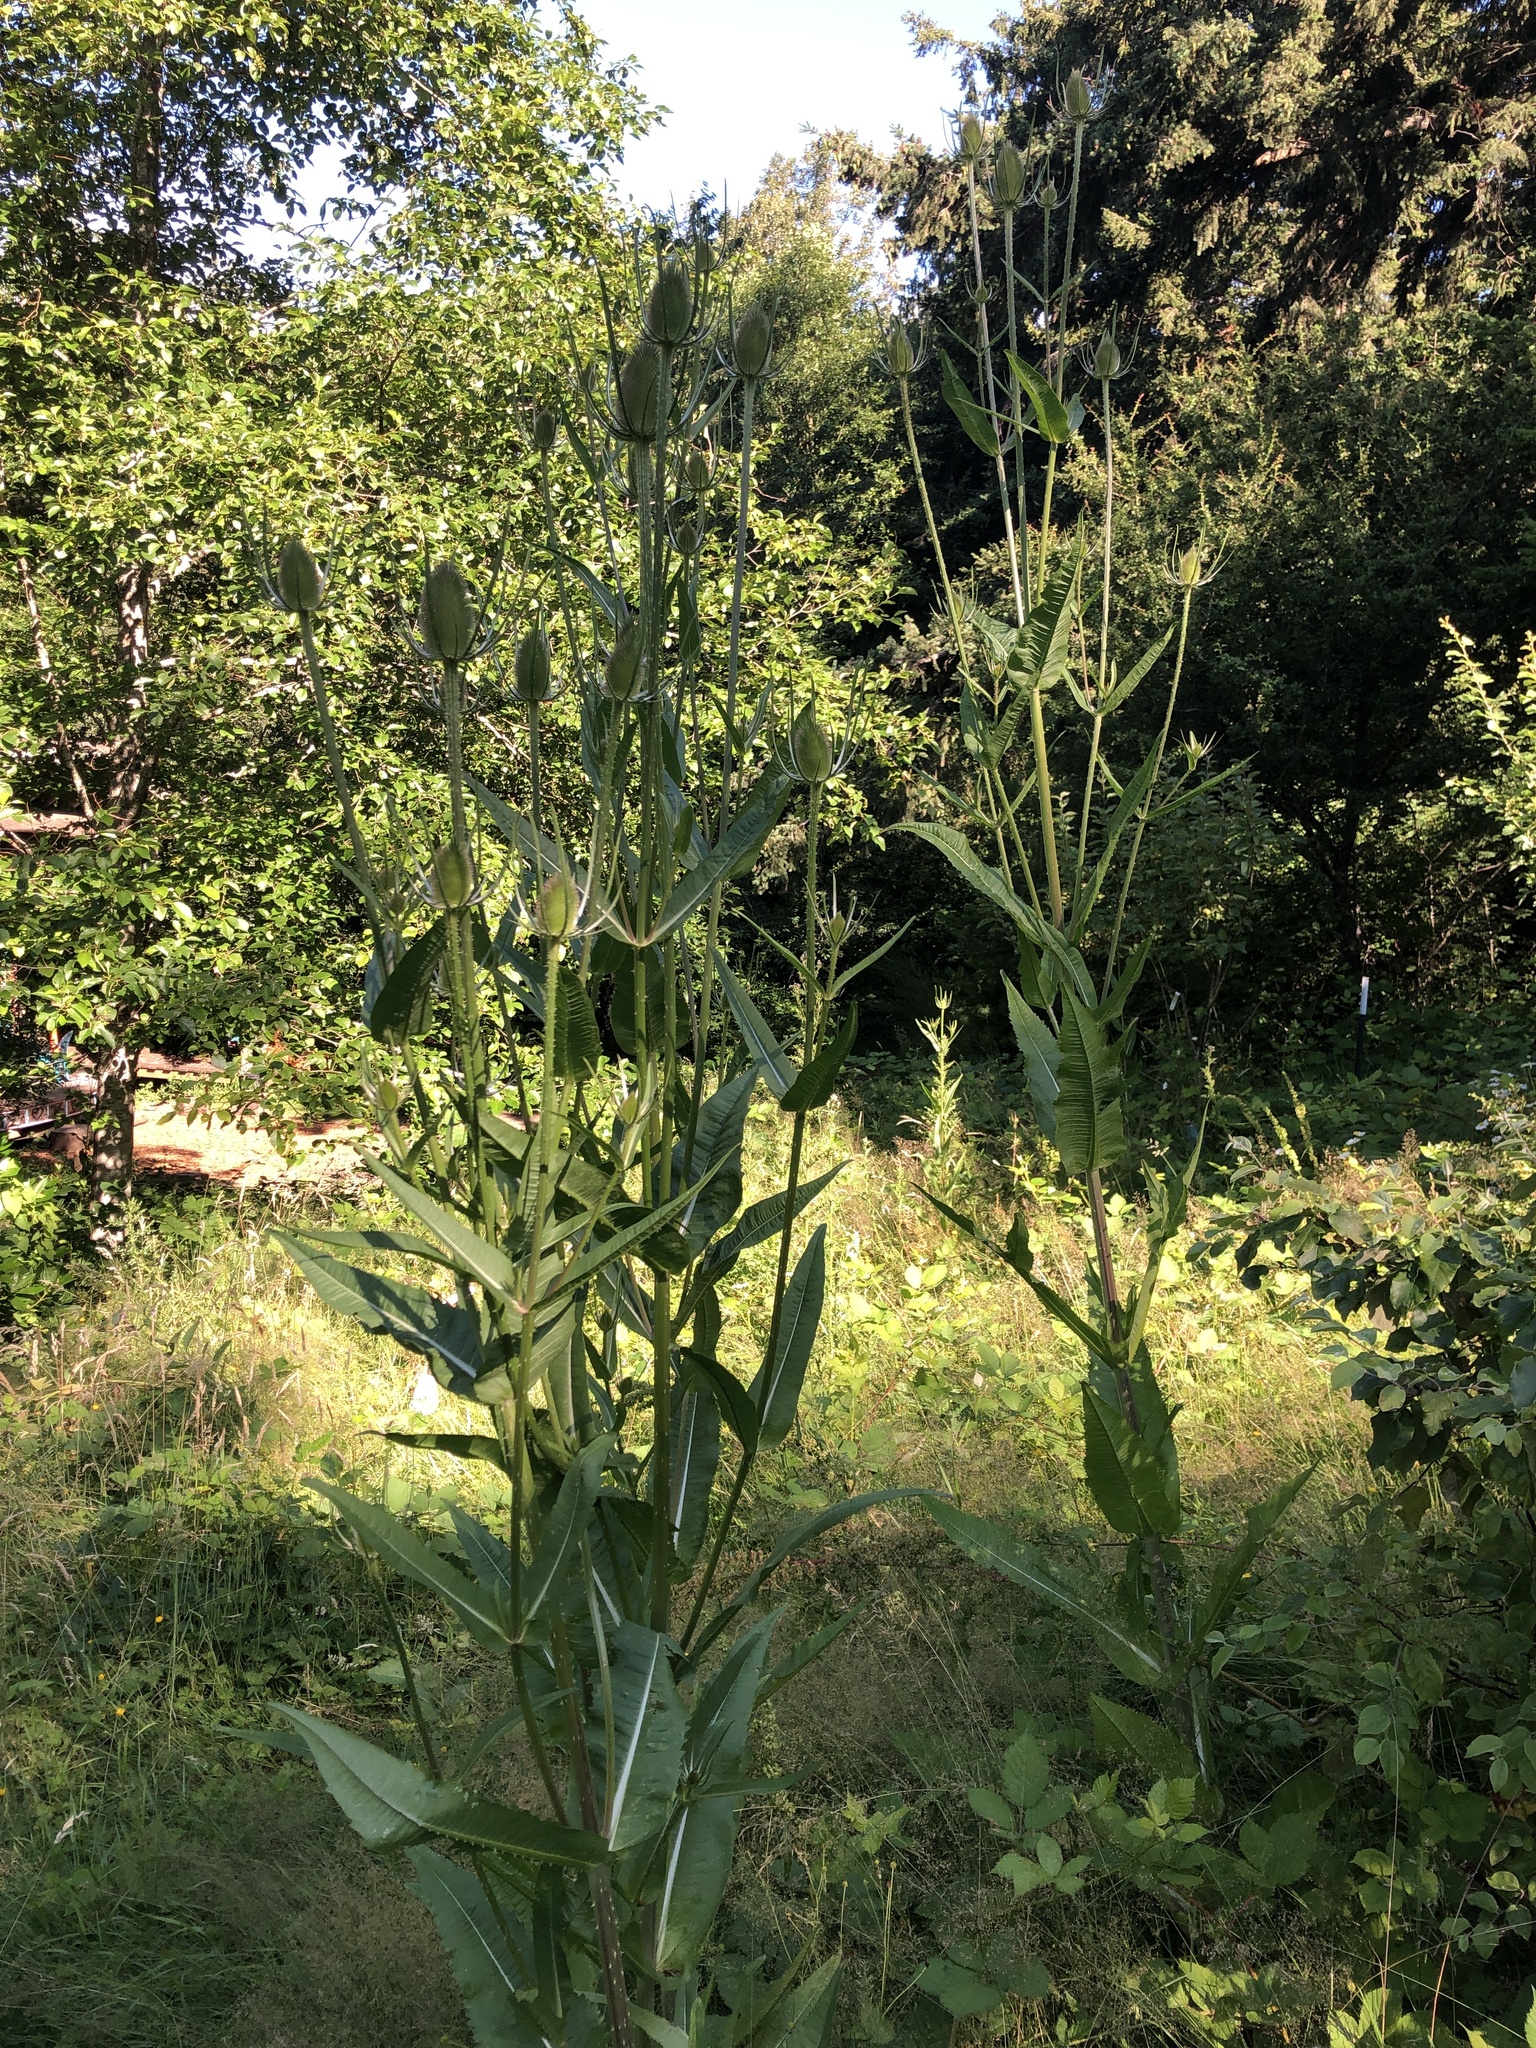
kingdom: Plantae
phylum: Tracheophyta
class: Magnoliopsida
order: Dipsacales
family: Caprifoliaceae
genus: Dipsacus
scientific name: Dipsacus fullonum
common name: Teasel
